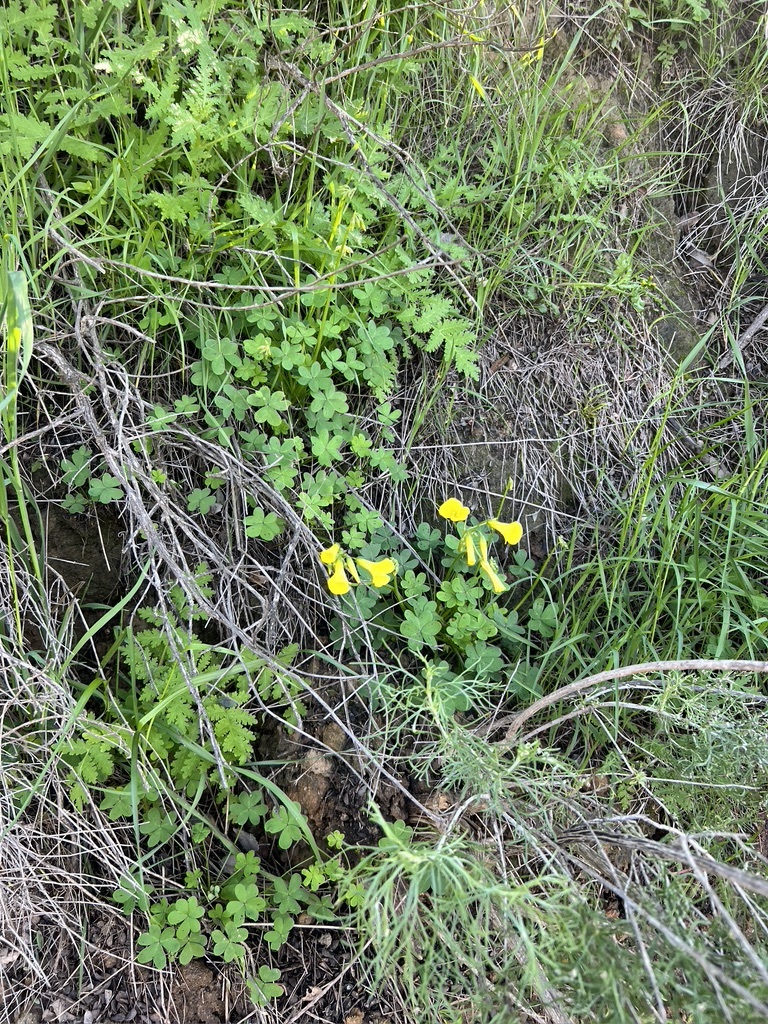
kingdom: Plantae
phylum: Tracheophyta
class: Magnoliopsida
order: Oxalidales
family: Oxalidaceae
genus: Oxalis
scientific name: Oxalis pes-caprae
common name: Bermuda-buttercup
